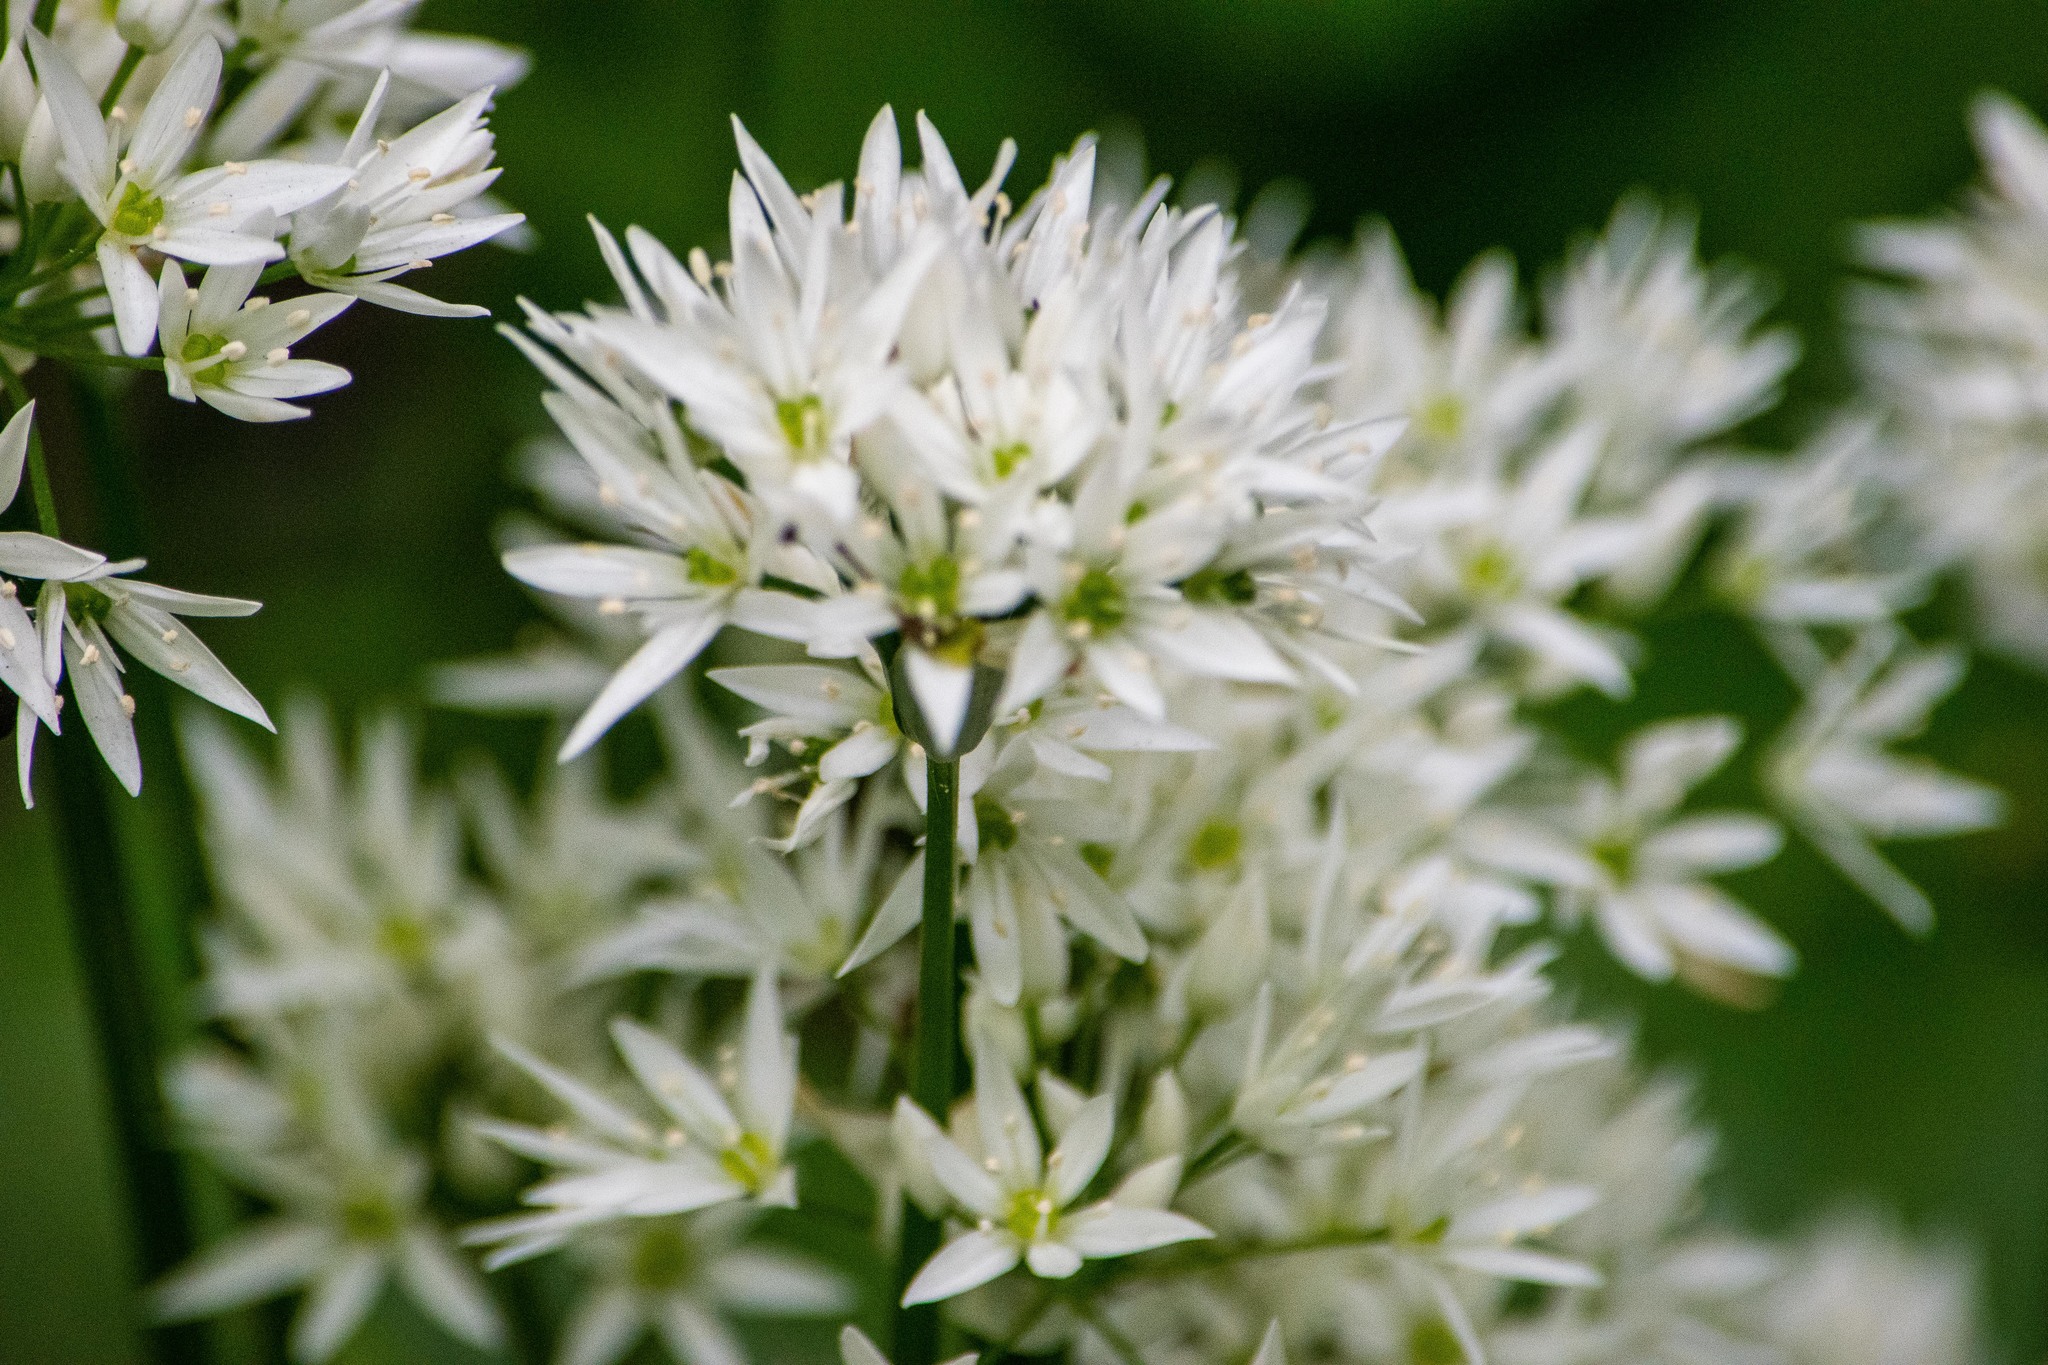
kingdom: Plantae
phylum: Tracheophyta
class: Liliopsida
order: Asparagales
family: Amaryllidaceae
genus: Allium
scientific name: Allium ursinum
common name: Ramsons
